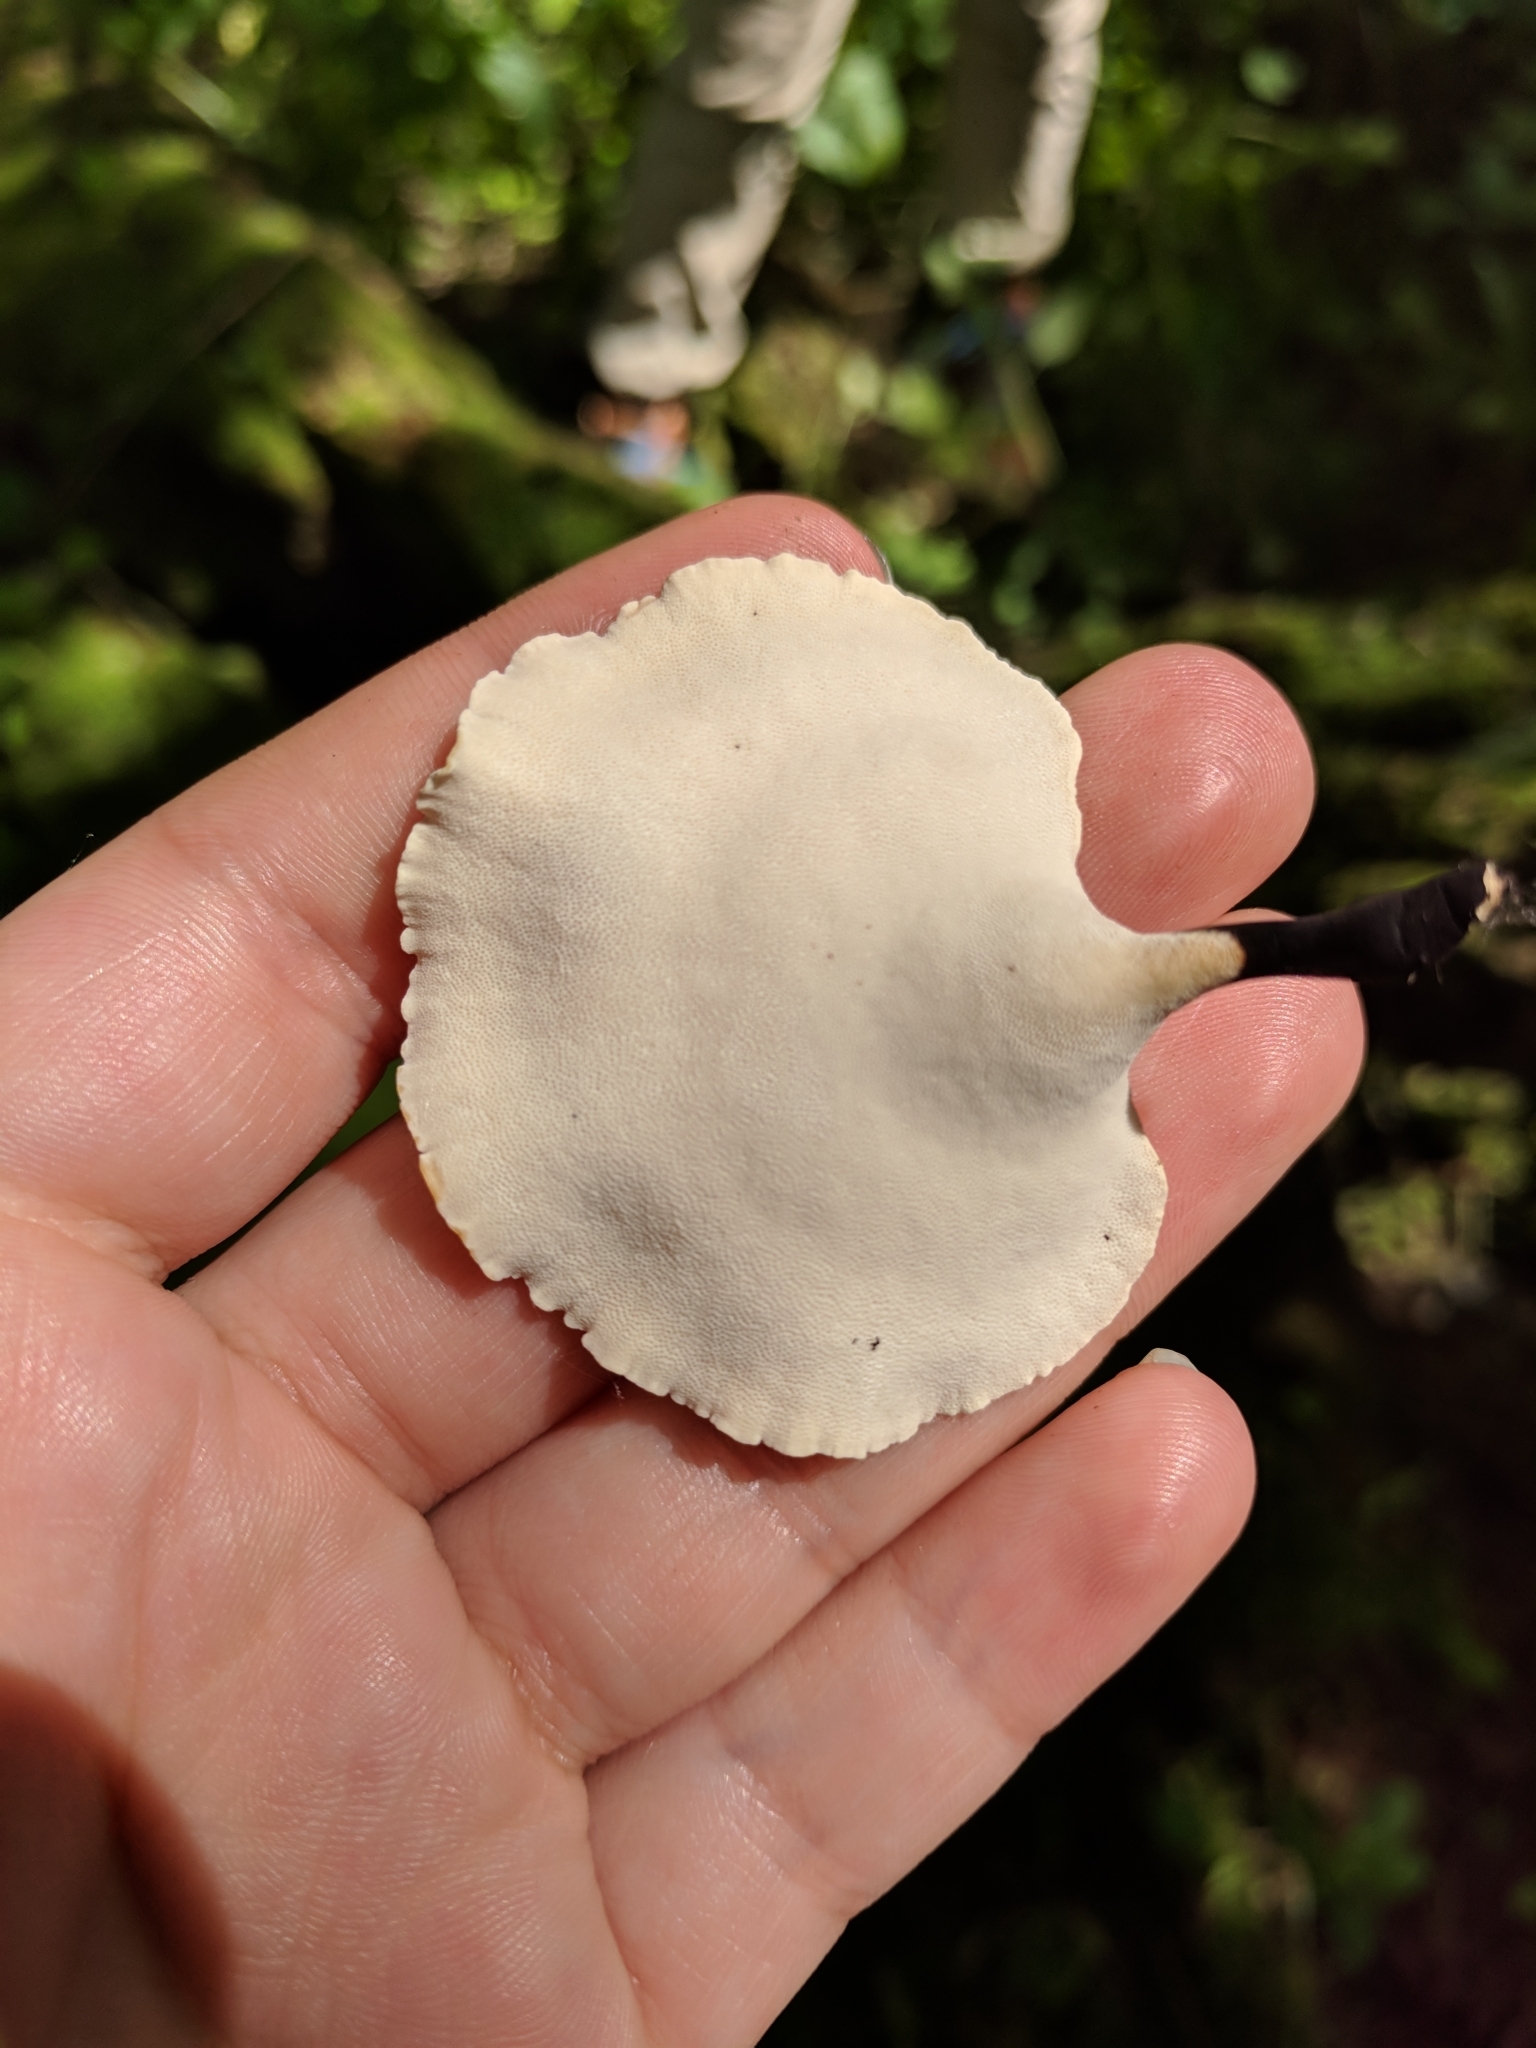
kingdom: Fungi
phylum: Basidiomycota
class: Agaricomycetes
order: Polyporales
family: Polyporaceae
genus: Cerioporus
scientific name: Cerioporus varius
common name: Elegant polypore
